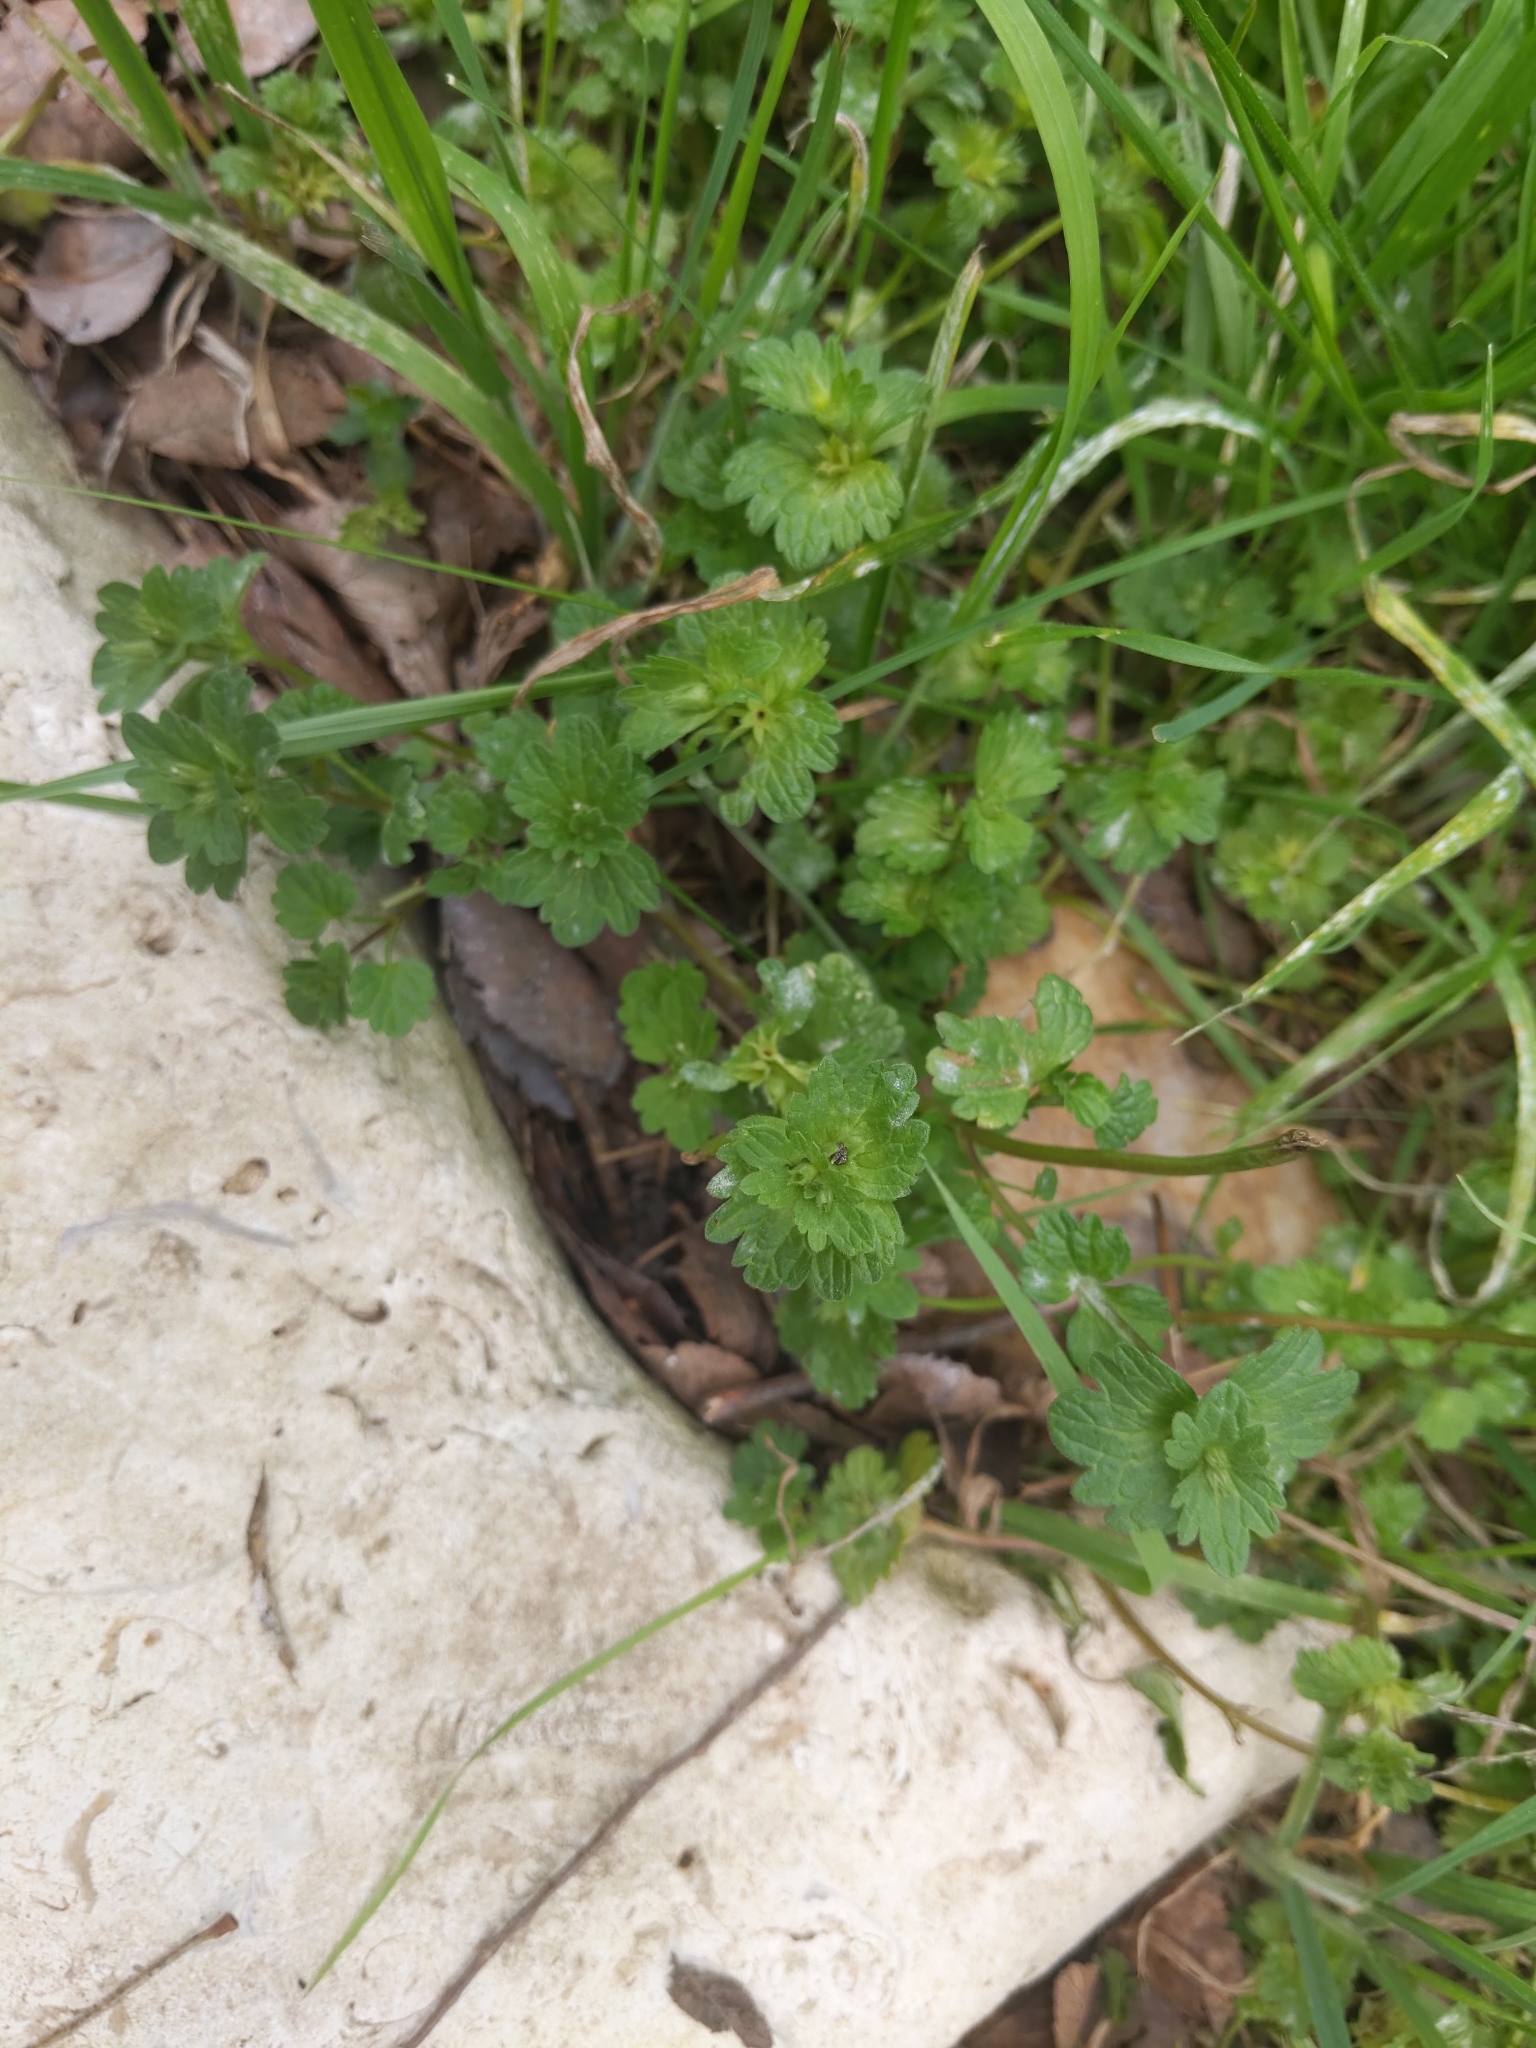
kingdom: Plantae
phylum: Tracheophyta
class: Magnoliopsida
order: Lamiales
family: Lamiaceae
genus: Lamium
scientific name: Lamium amplexicaule
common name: Henbit dead-nettle
